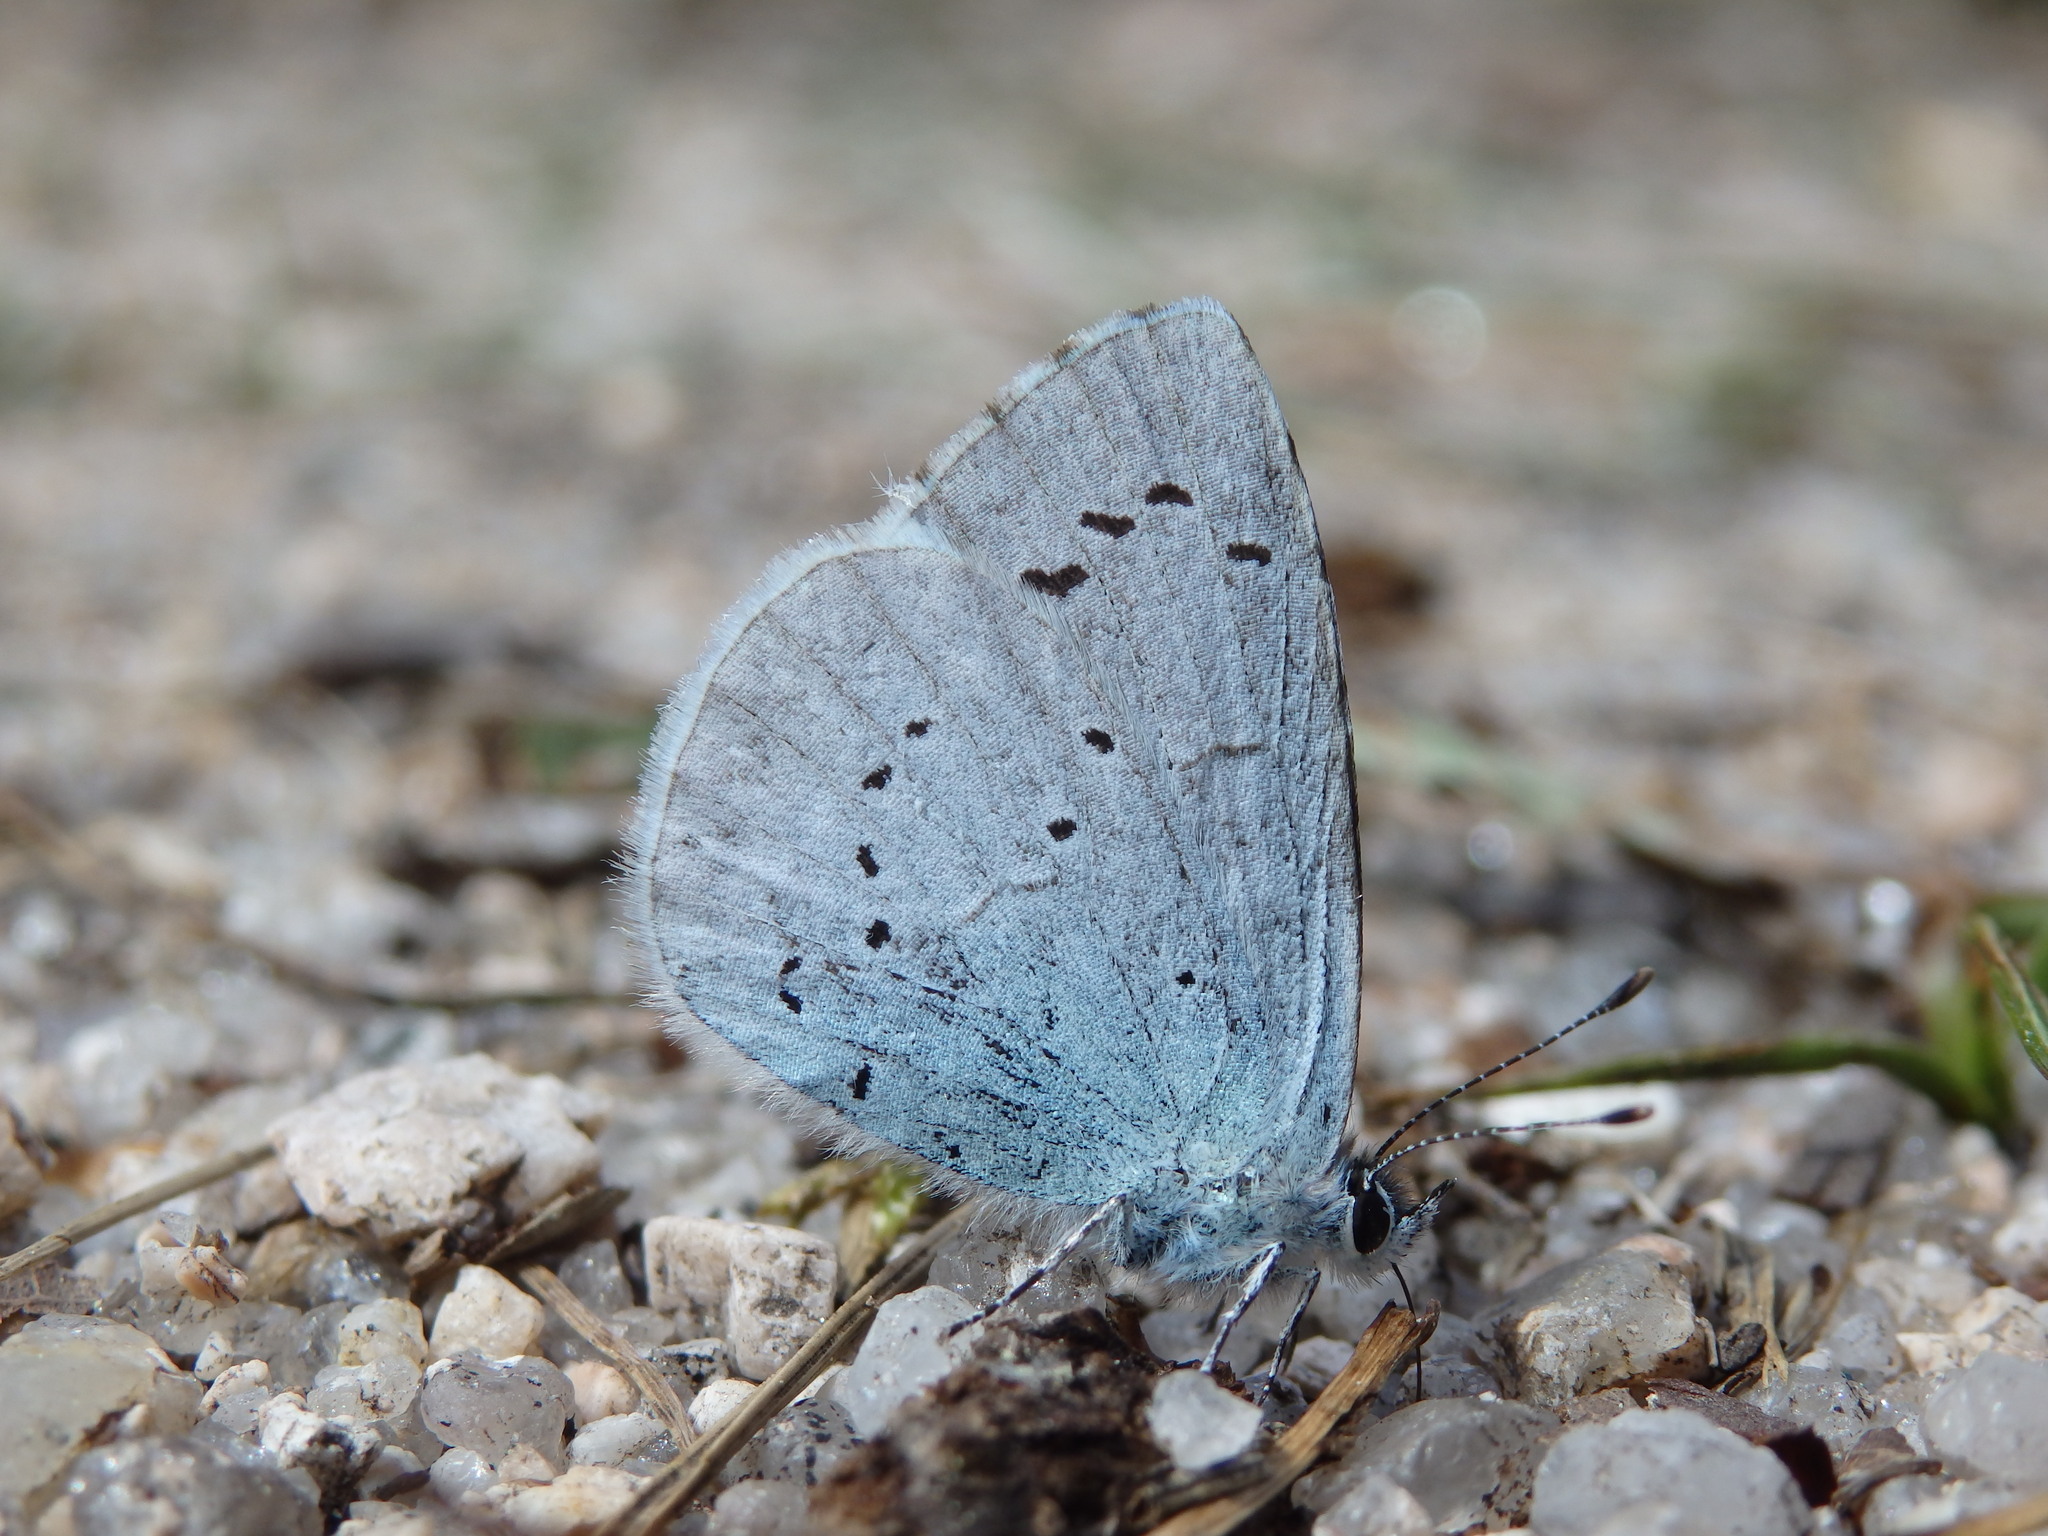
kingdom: Animalia
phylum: Arthropoda
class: Insecta
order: Lepidoptera
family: Lycaenidae
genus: Celastrina
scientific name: Celastrina argiolus
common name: Holly blue
